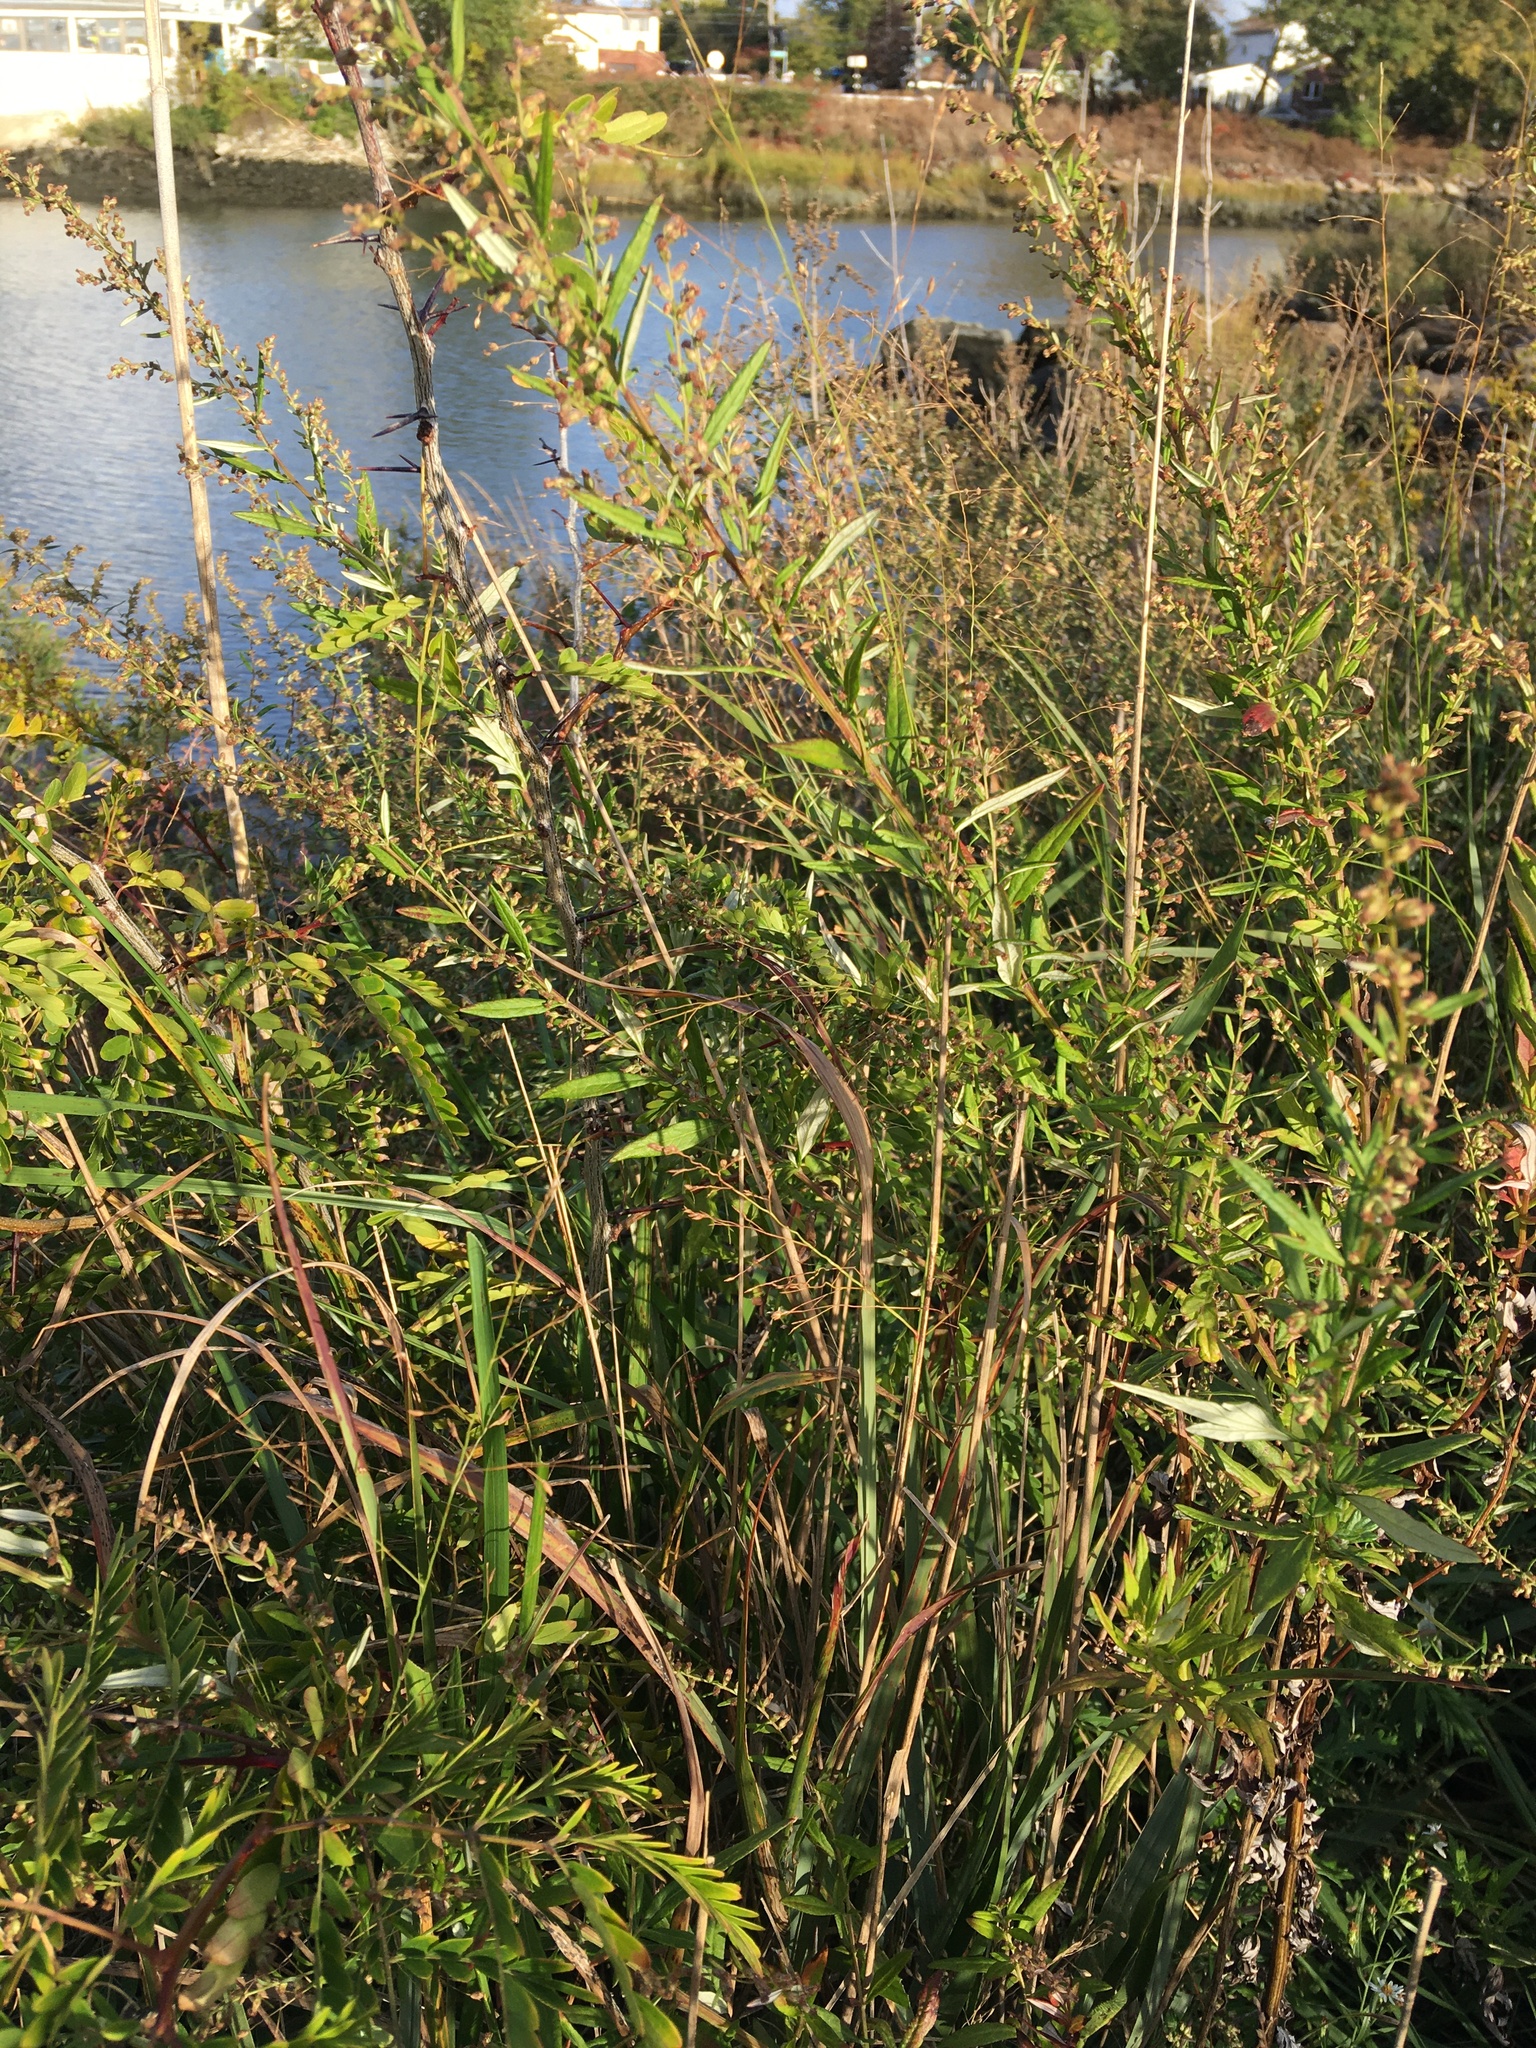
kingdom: Plantae
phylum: Tracheophyta
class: Magnoliopsida
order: Asterales
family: Asteraceae
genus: Artemisia
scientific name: Artemisia vulgaris
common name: Mugwort
